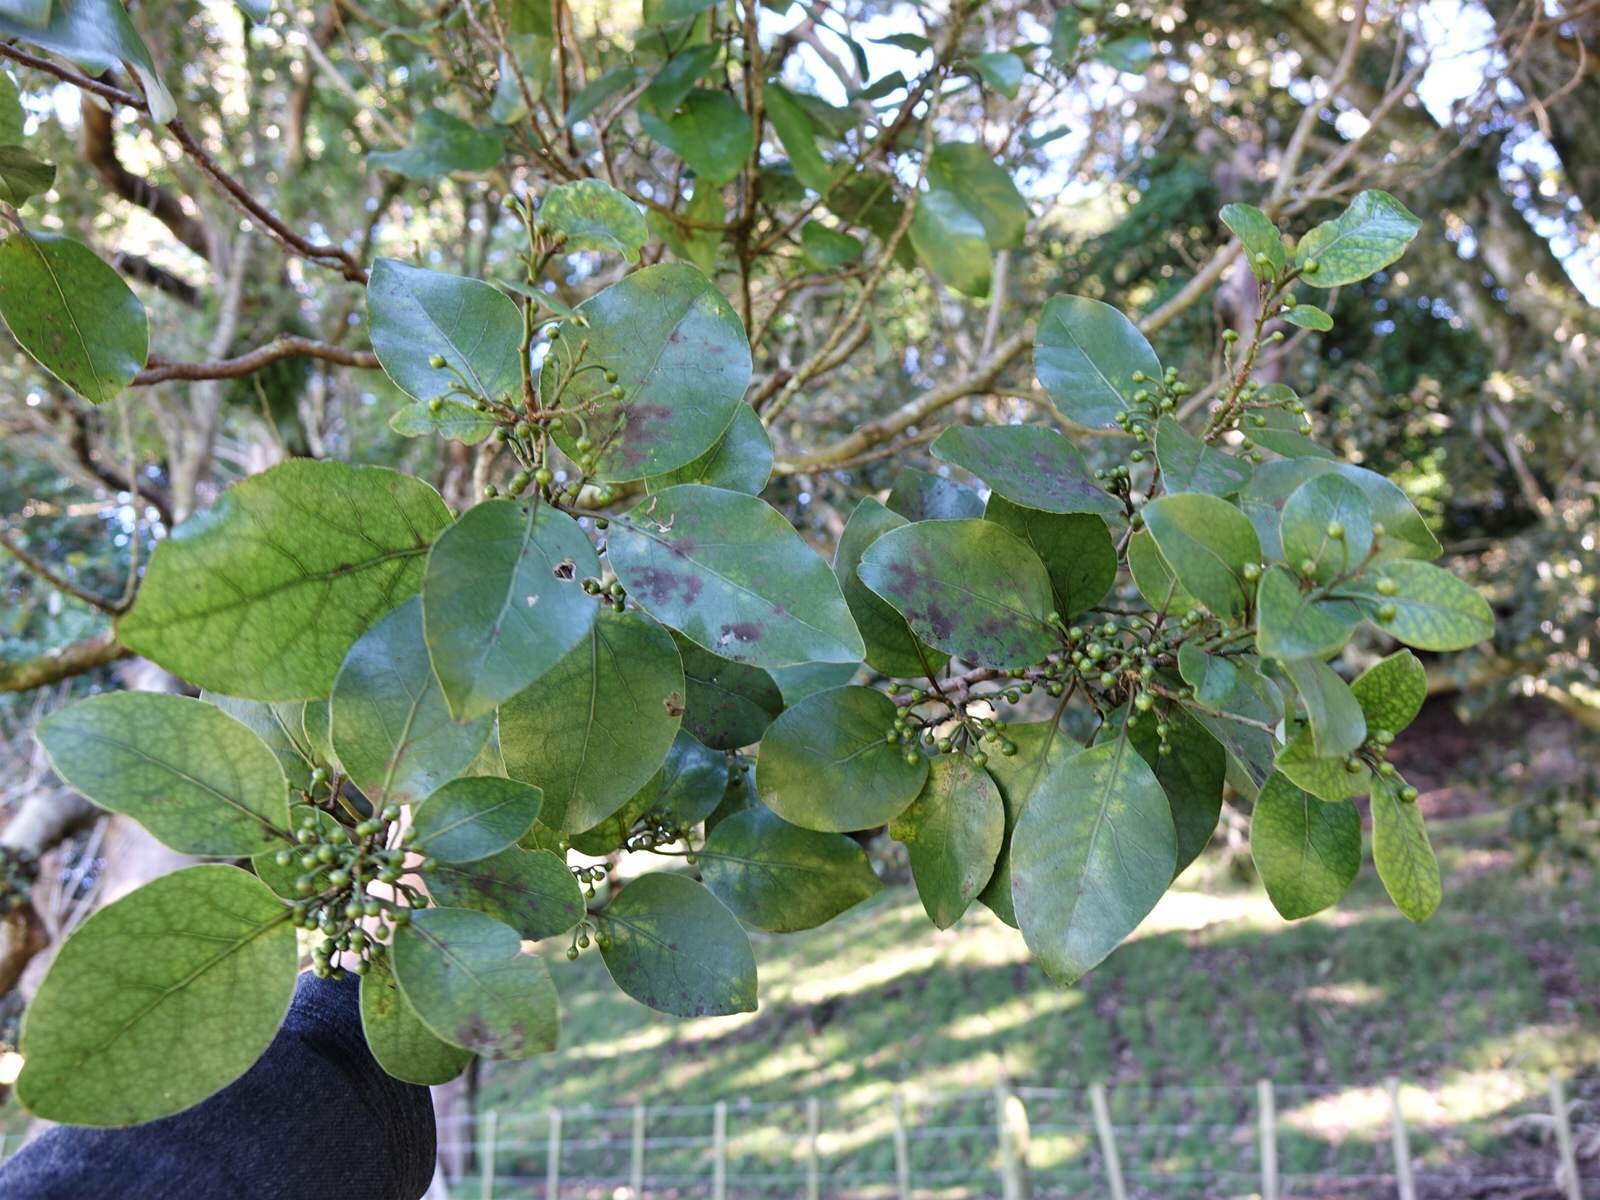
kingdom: Plantae
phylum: Tracheophyta
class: Magnoliopsida
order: Laurales
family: Lauraceae
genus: Litsea
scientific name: Litsea calicaris
